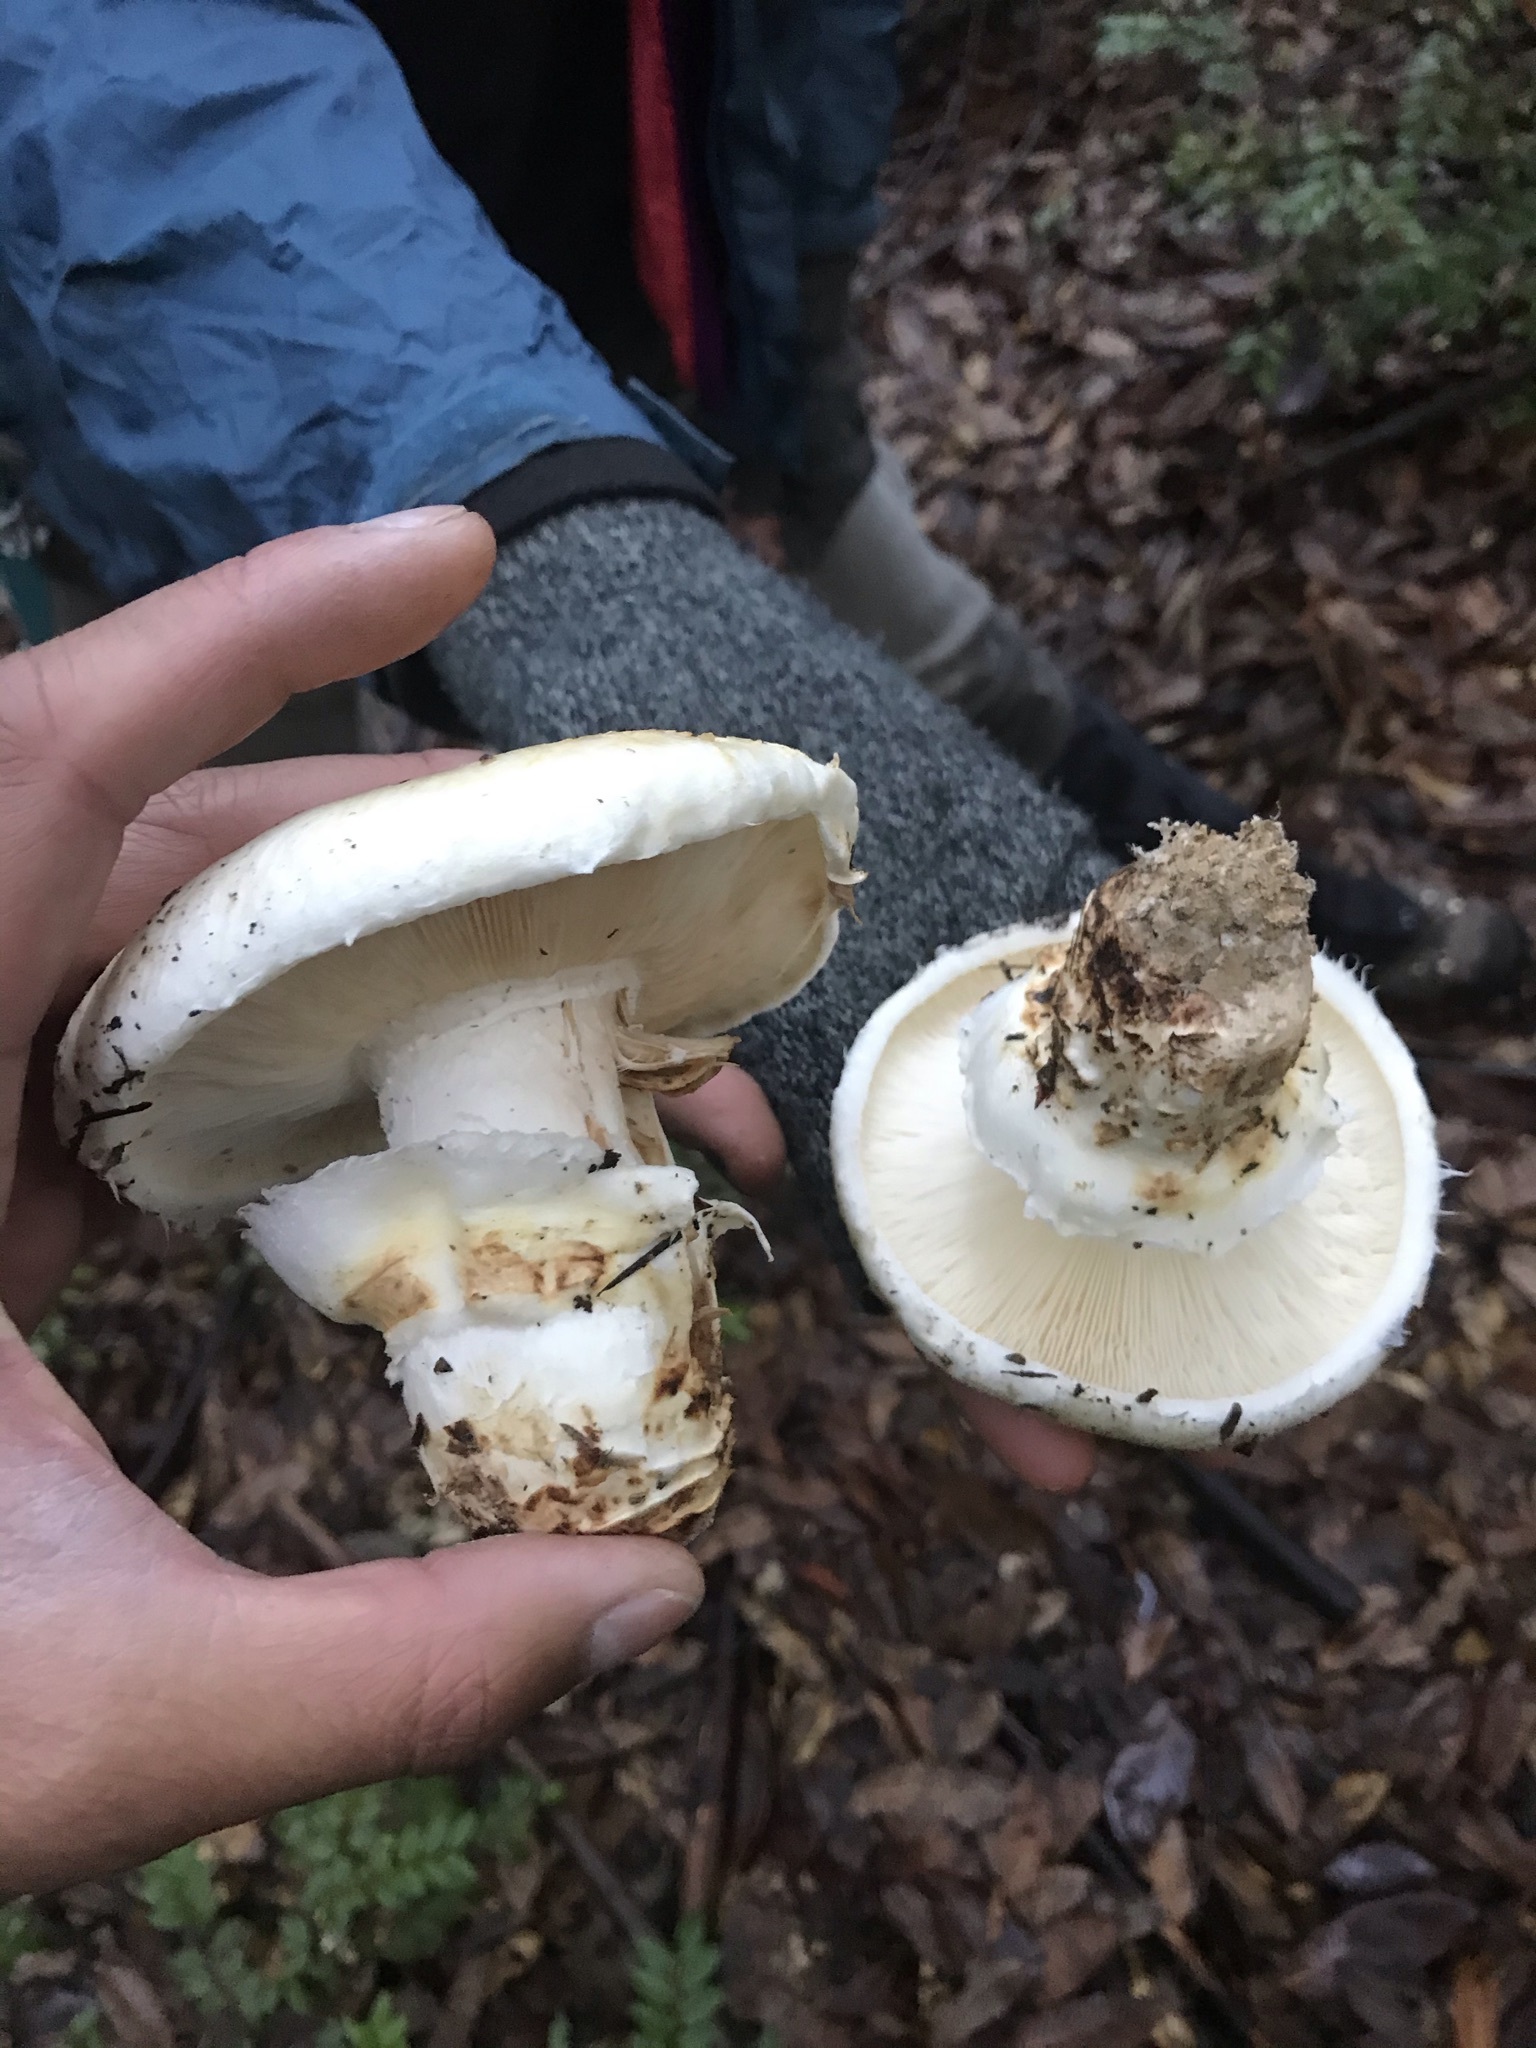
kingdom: Fungi
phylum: Basidiomycota
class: Agaricomycetes
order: Agaricales
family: Tricholomataceae
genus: Tricholoma
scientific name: Tricholoma murrillianum
